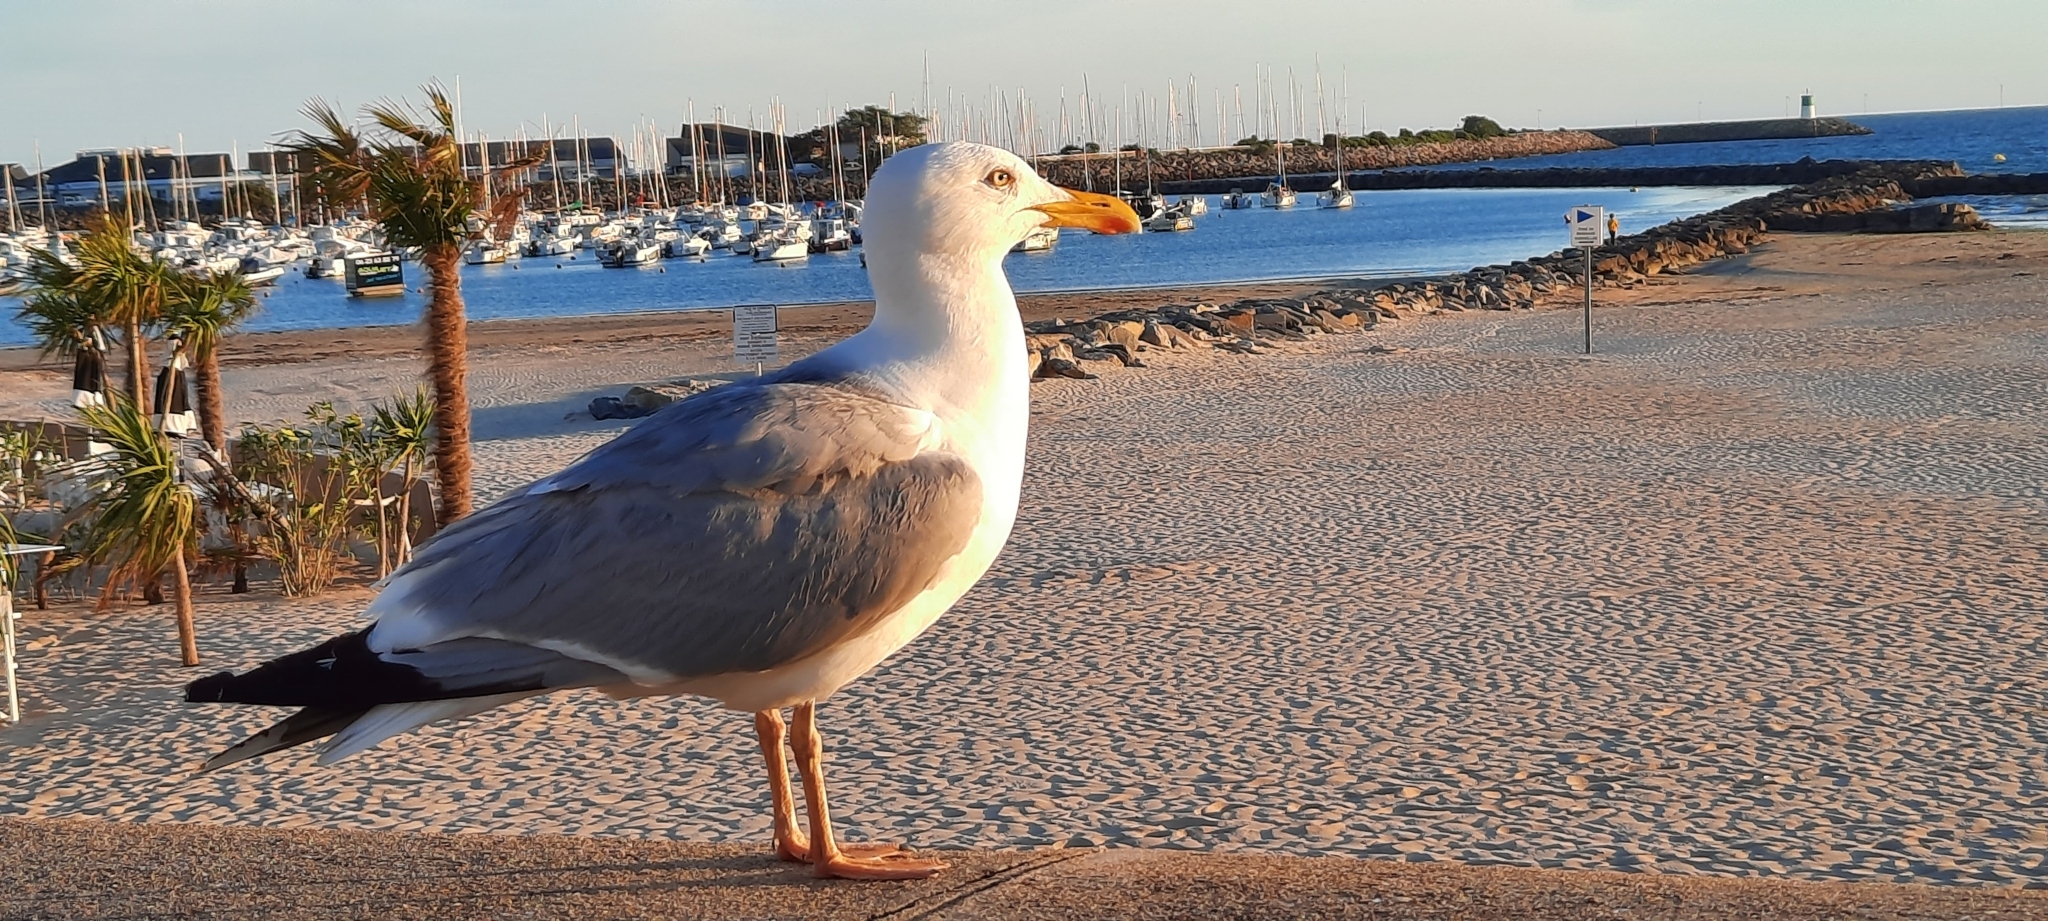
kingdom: Animalia
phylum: Chordata
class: Aves
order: Charadriiformes
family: Laridae
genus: Larus
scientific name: Larus michahellis
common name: Yellow-legged gull
